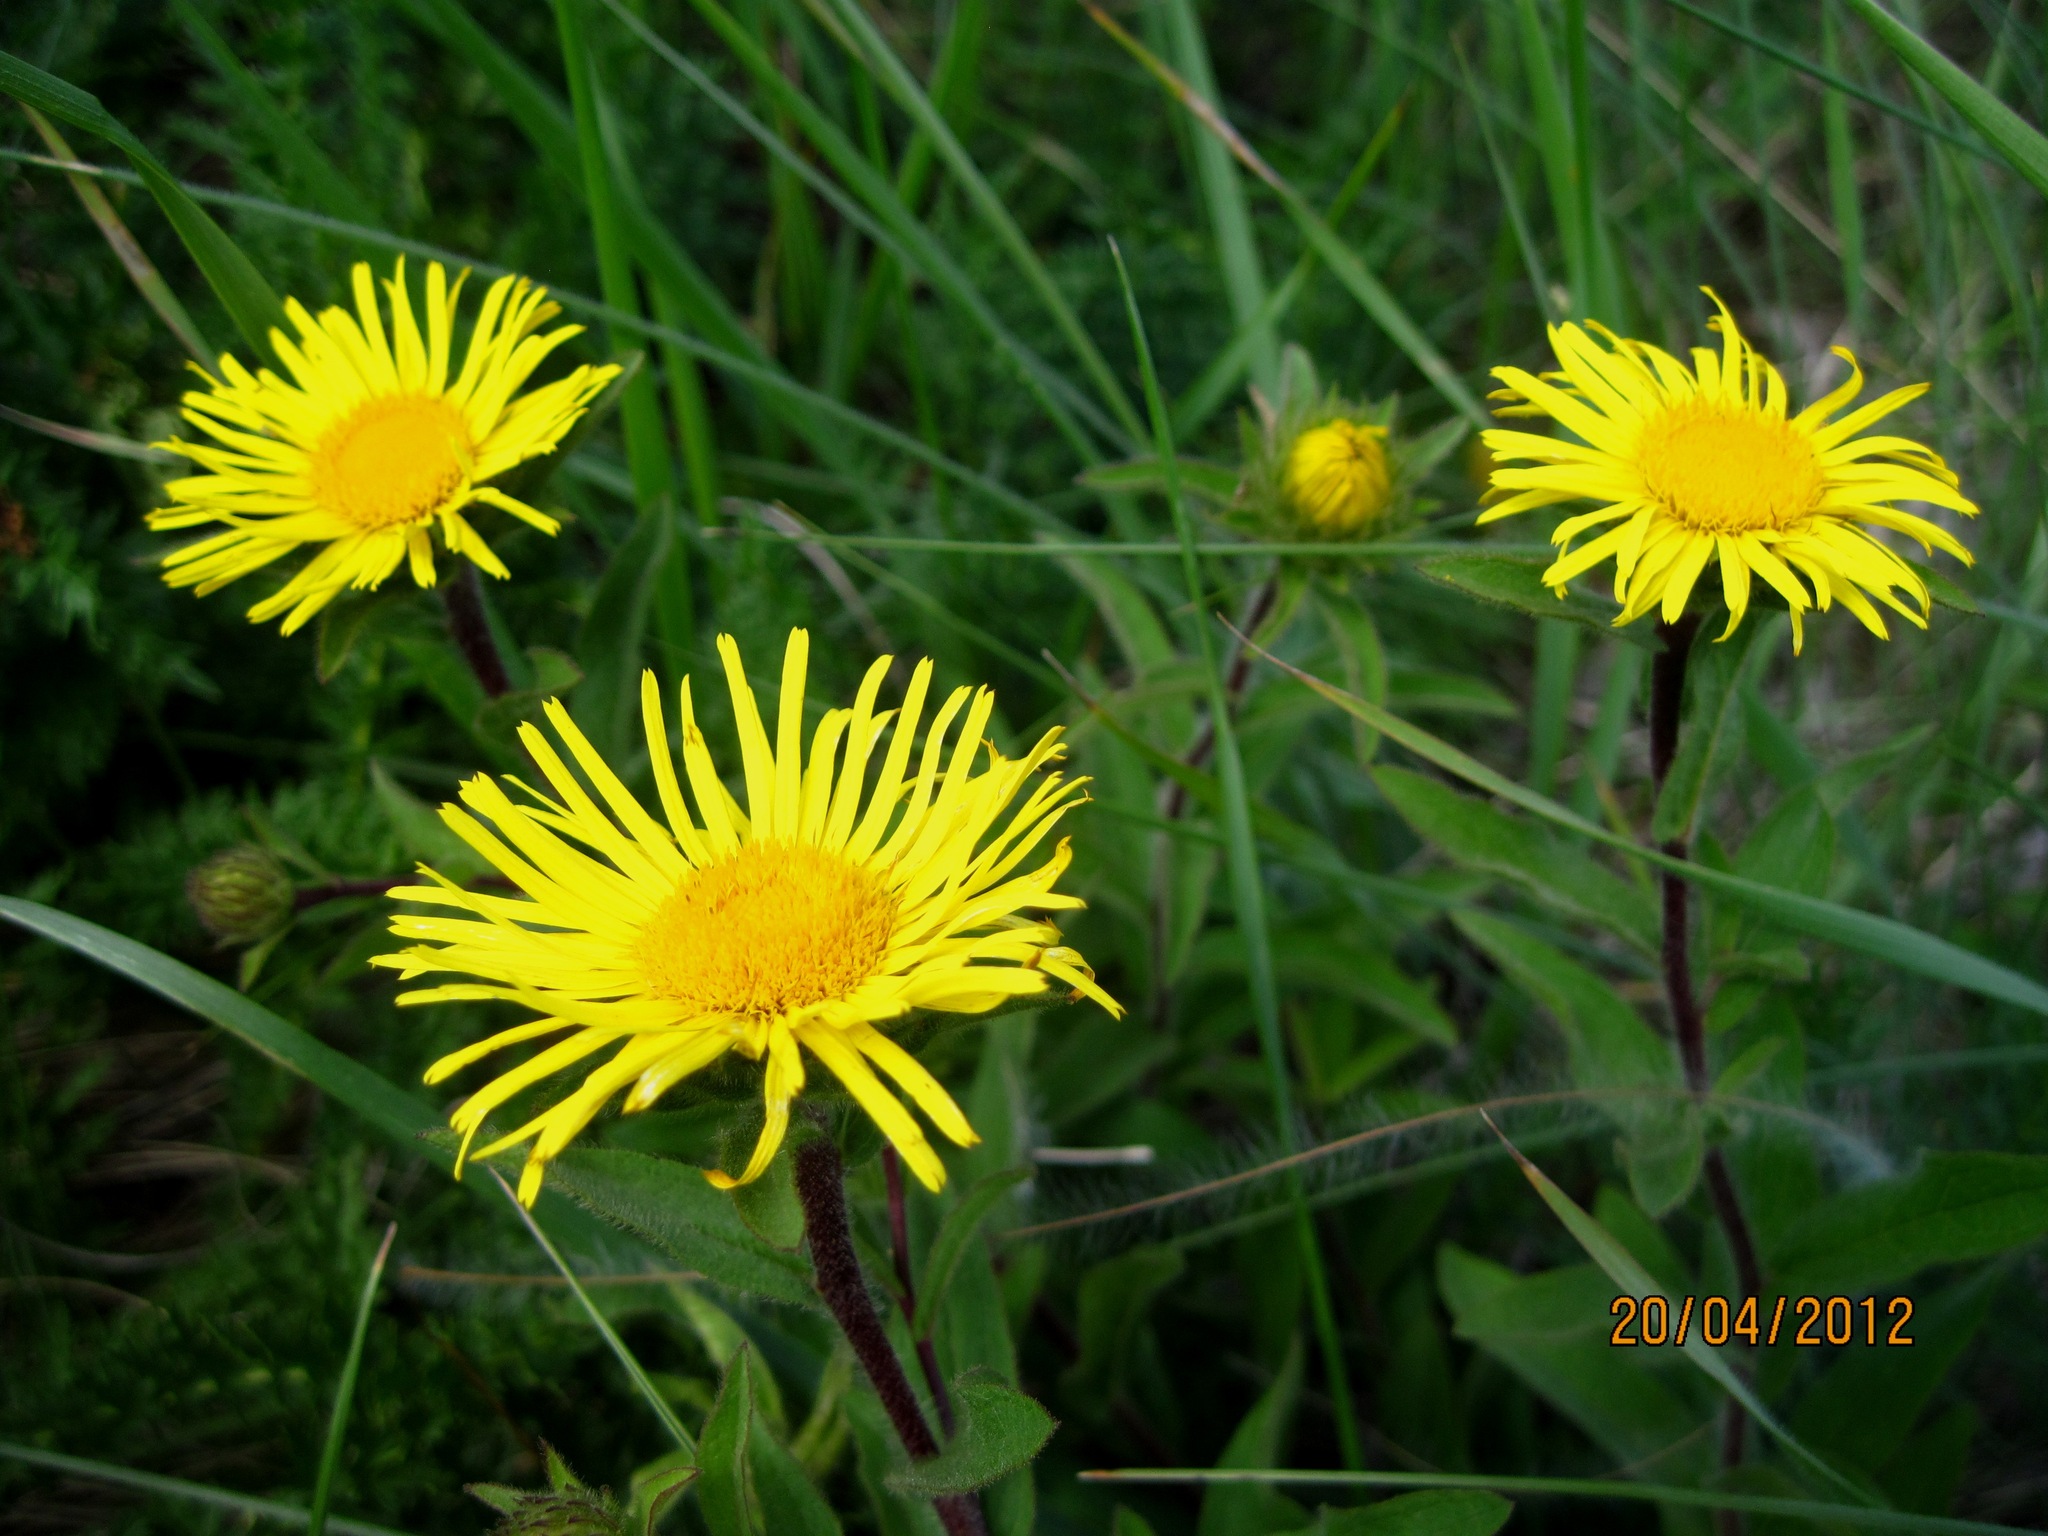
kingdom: Plantae
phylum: Tracheophyta
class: Magnoliopsida
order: Asterales
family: Asteraceae
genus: Pentanema
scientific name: Pentanema hirtum
